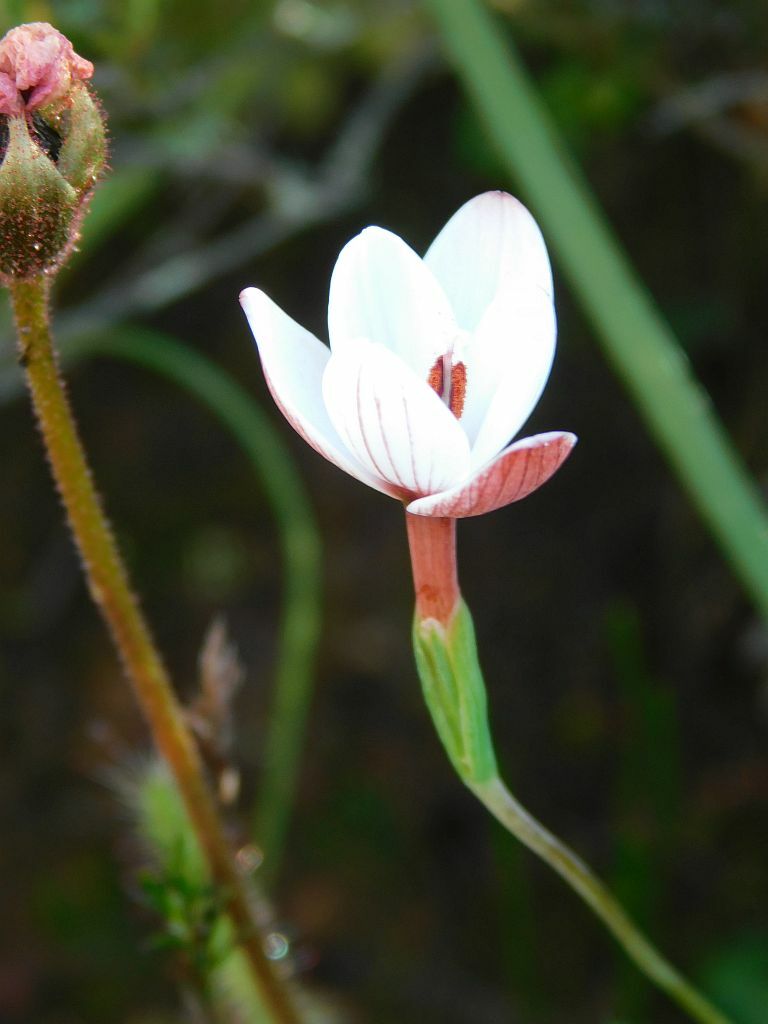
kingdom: Plantae
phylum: Tracheophyta
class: Liliopsida
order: Asparagales
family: Iridaceae
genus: Geissorhiza
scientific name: Geissorhiza ovata
